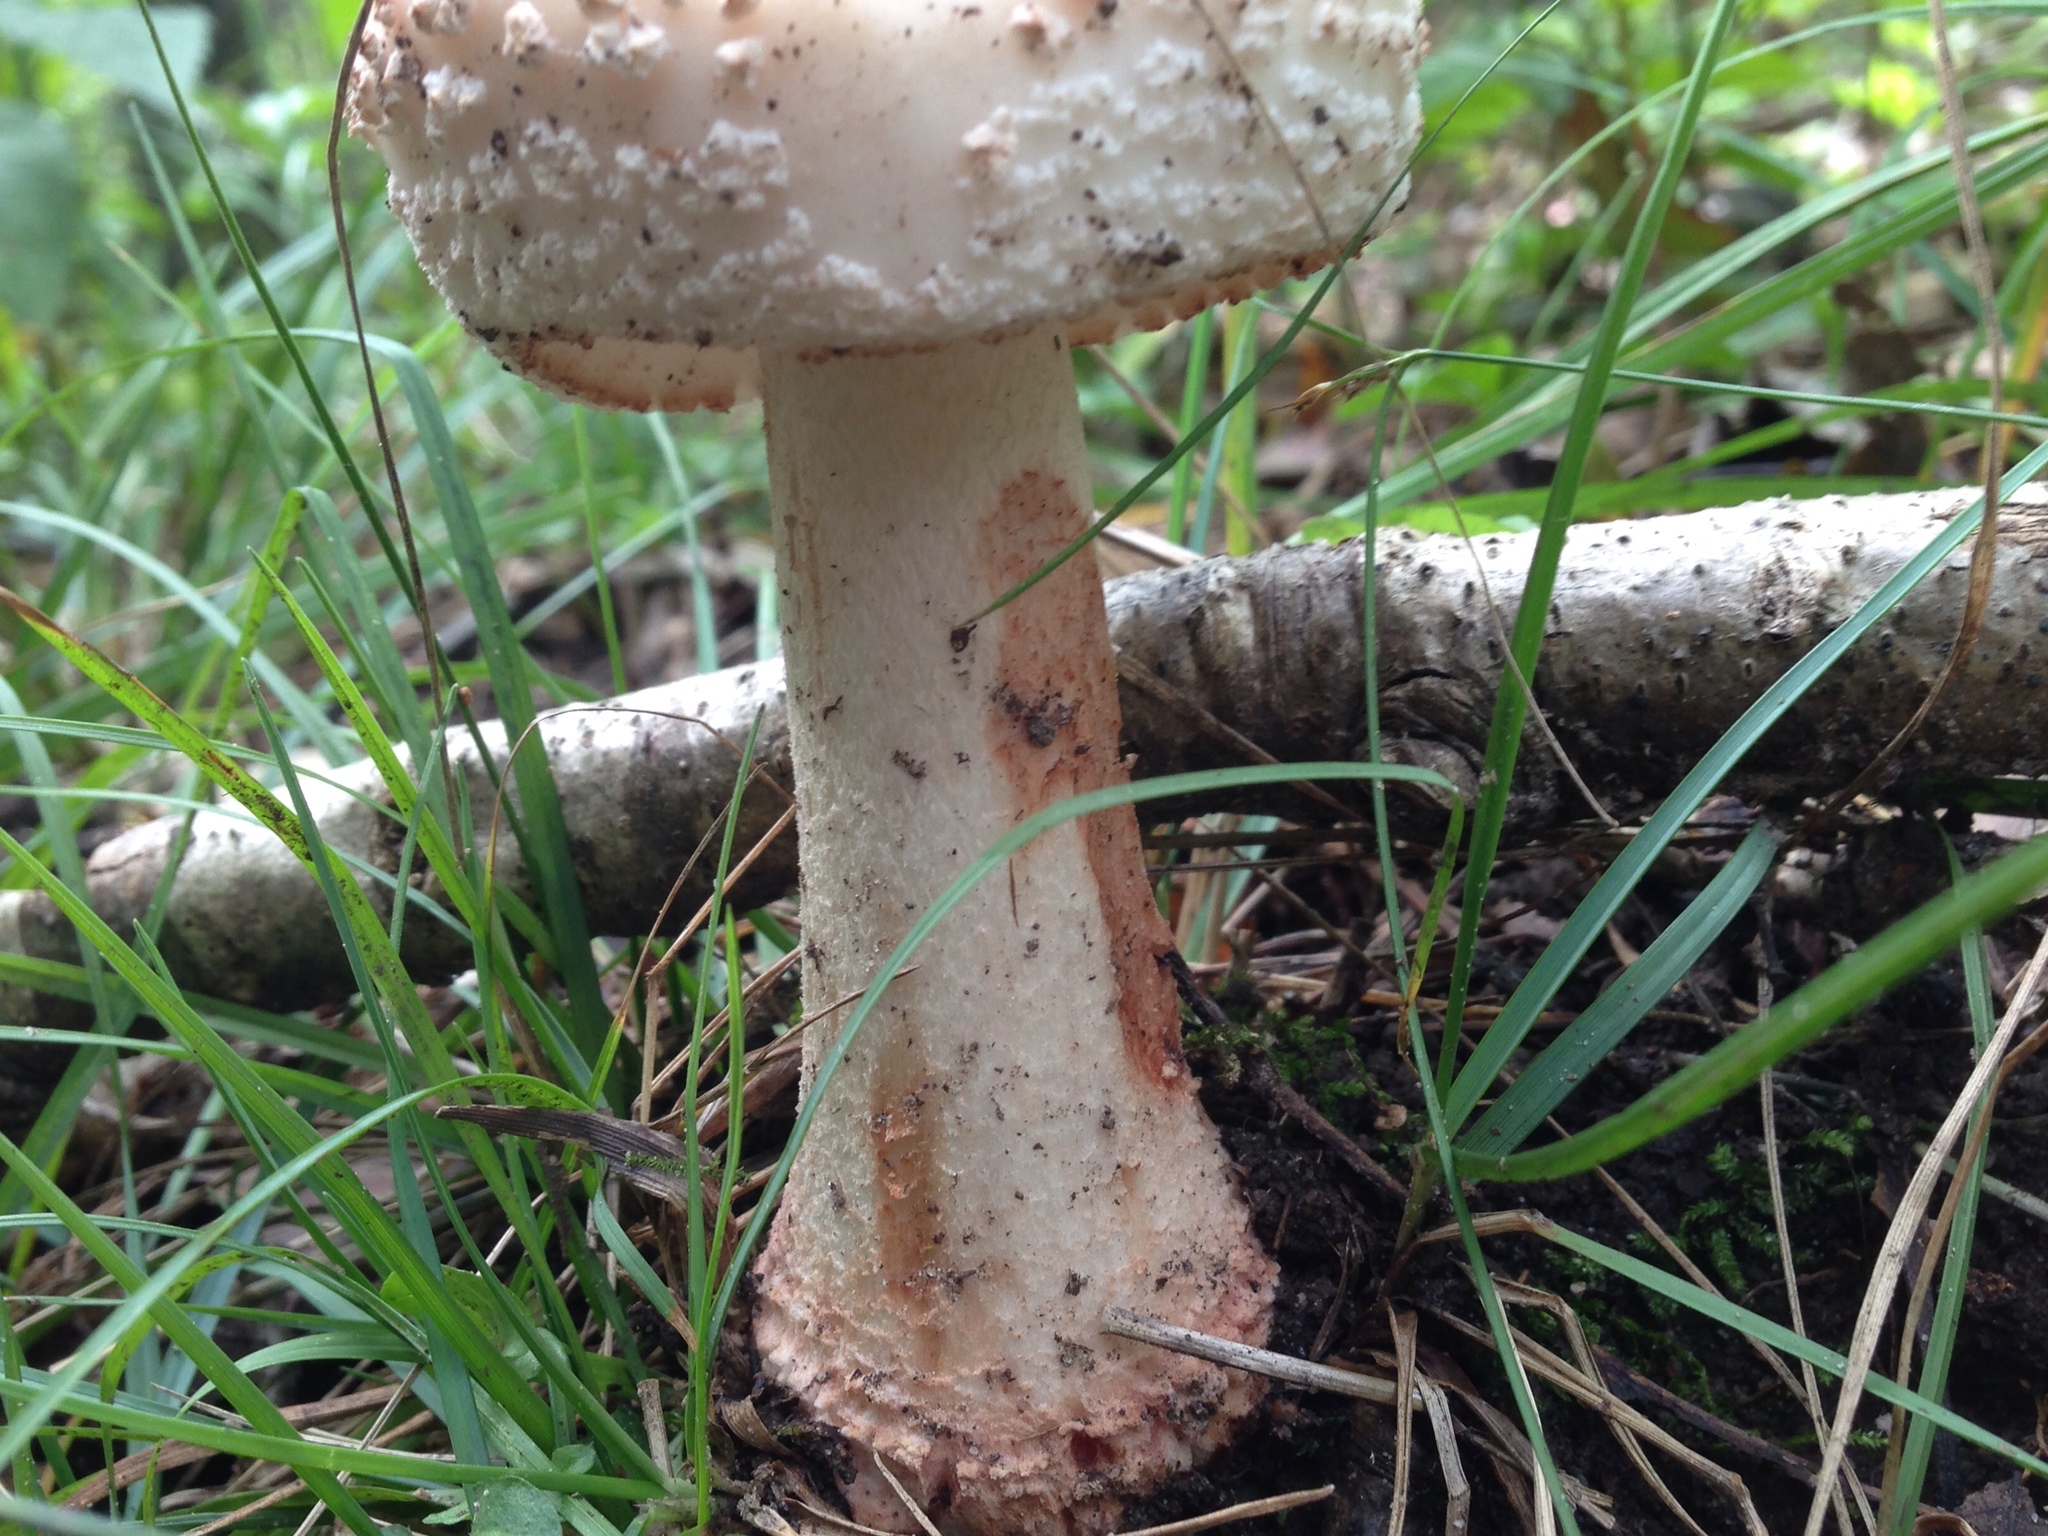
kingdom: Fungi
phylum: Basidiomycota
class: Agaricomycetes
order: Agaricales
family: Amanitaceae
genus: Amanita
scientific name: Amanita rubescens
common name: Blusher
